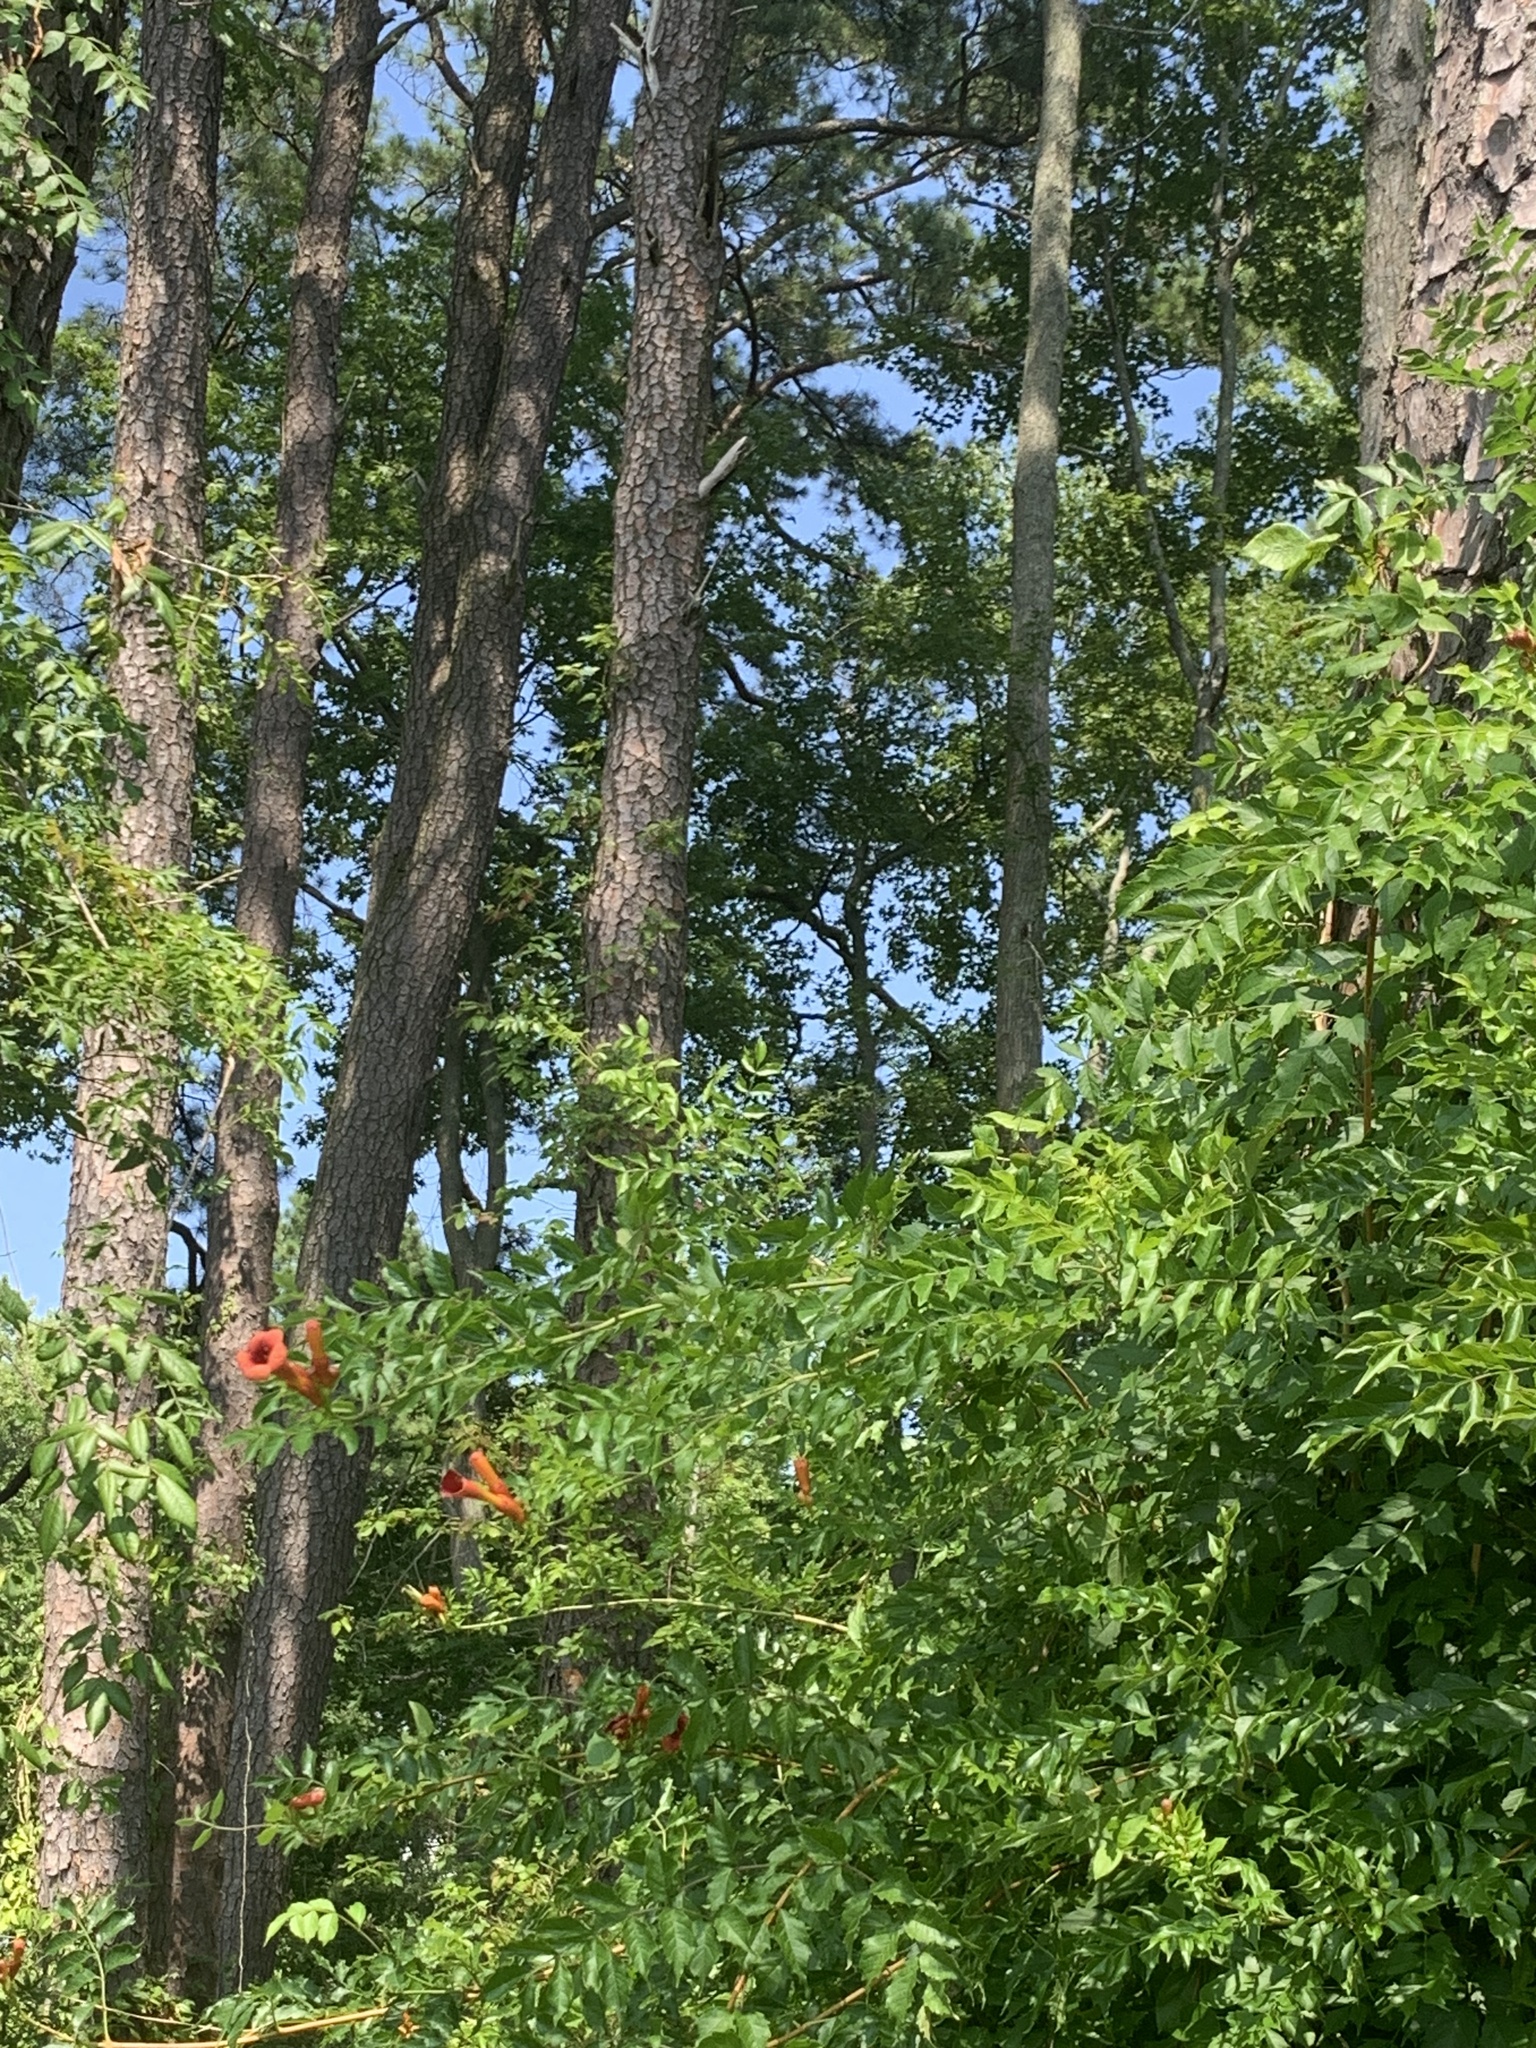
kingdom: Plantae
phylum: Tracheophyta
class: Magnoliopsida
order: Lamiales
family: Bignoniaceae
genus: Campsis
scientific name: Campsis radicans
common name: Trumpet-creeper
